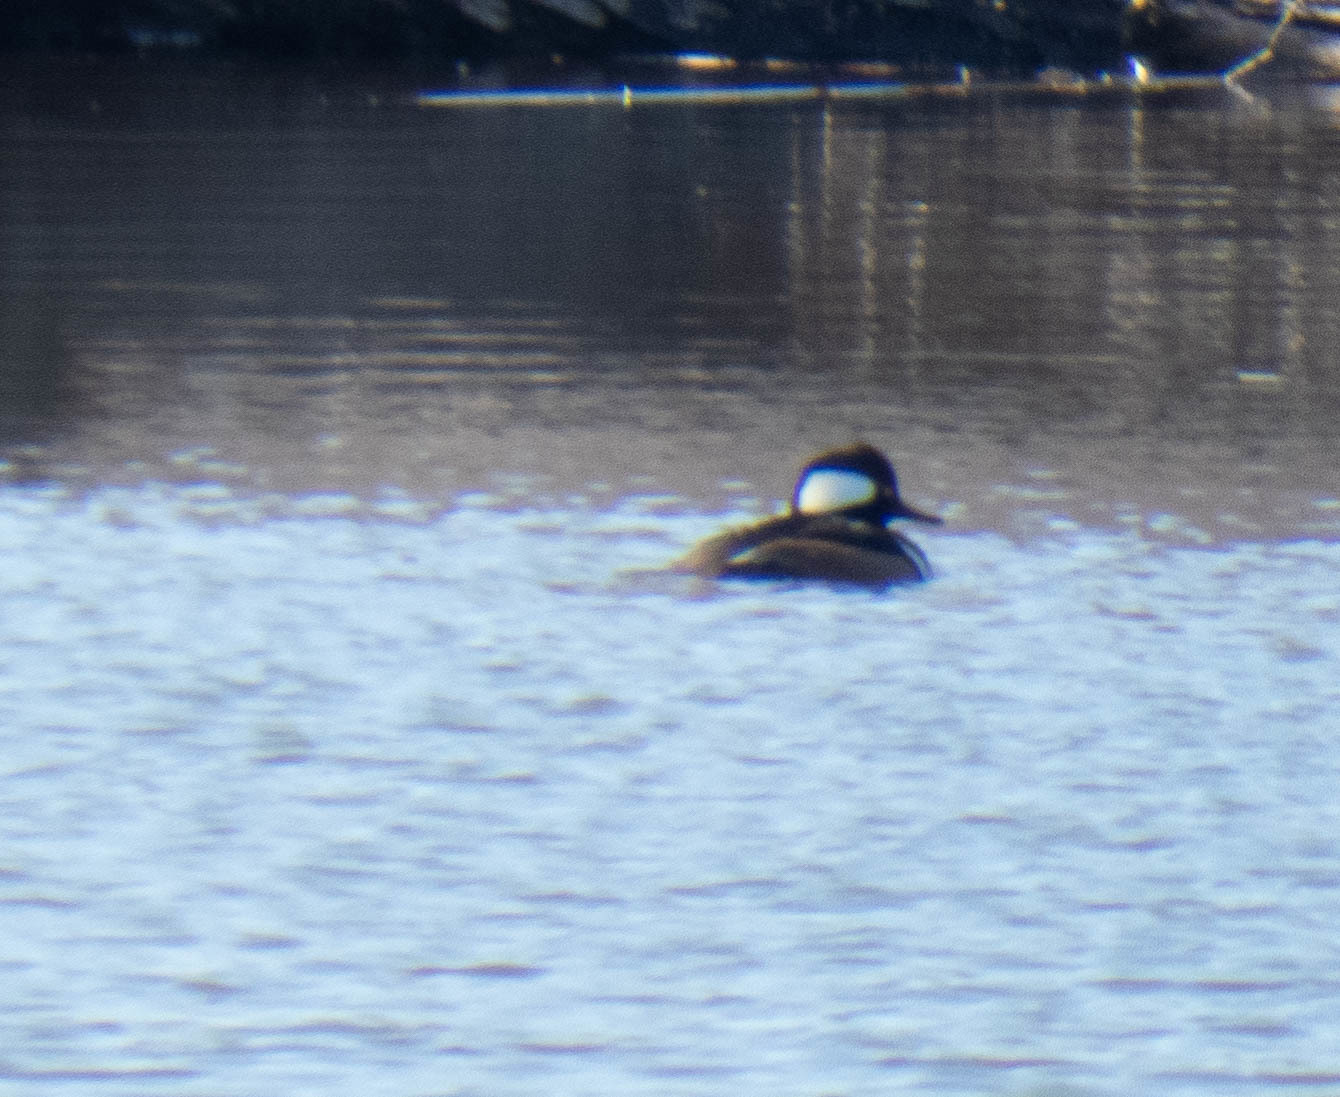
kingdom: Animalia
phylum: Chordata
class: Aves
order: Anseriformes
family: Anatidae
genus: Lophodytes
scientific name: Lophodytes cucullatus
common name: Hooded merganser
